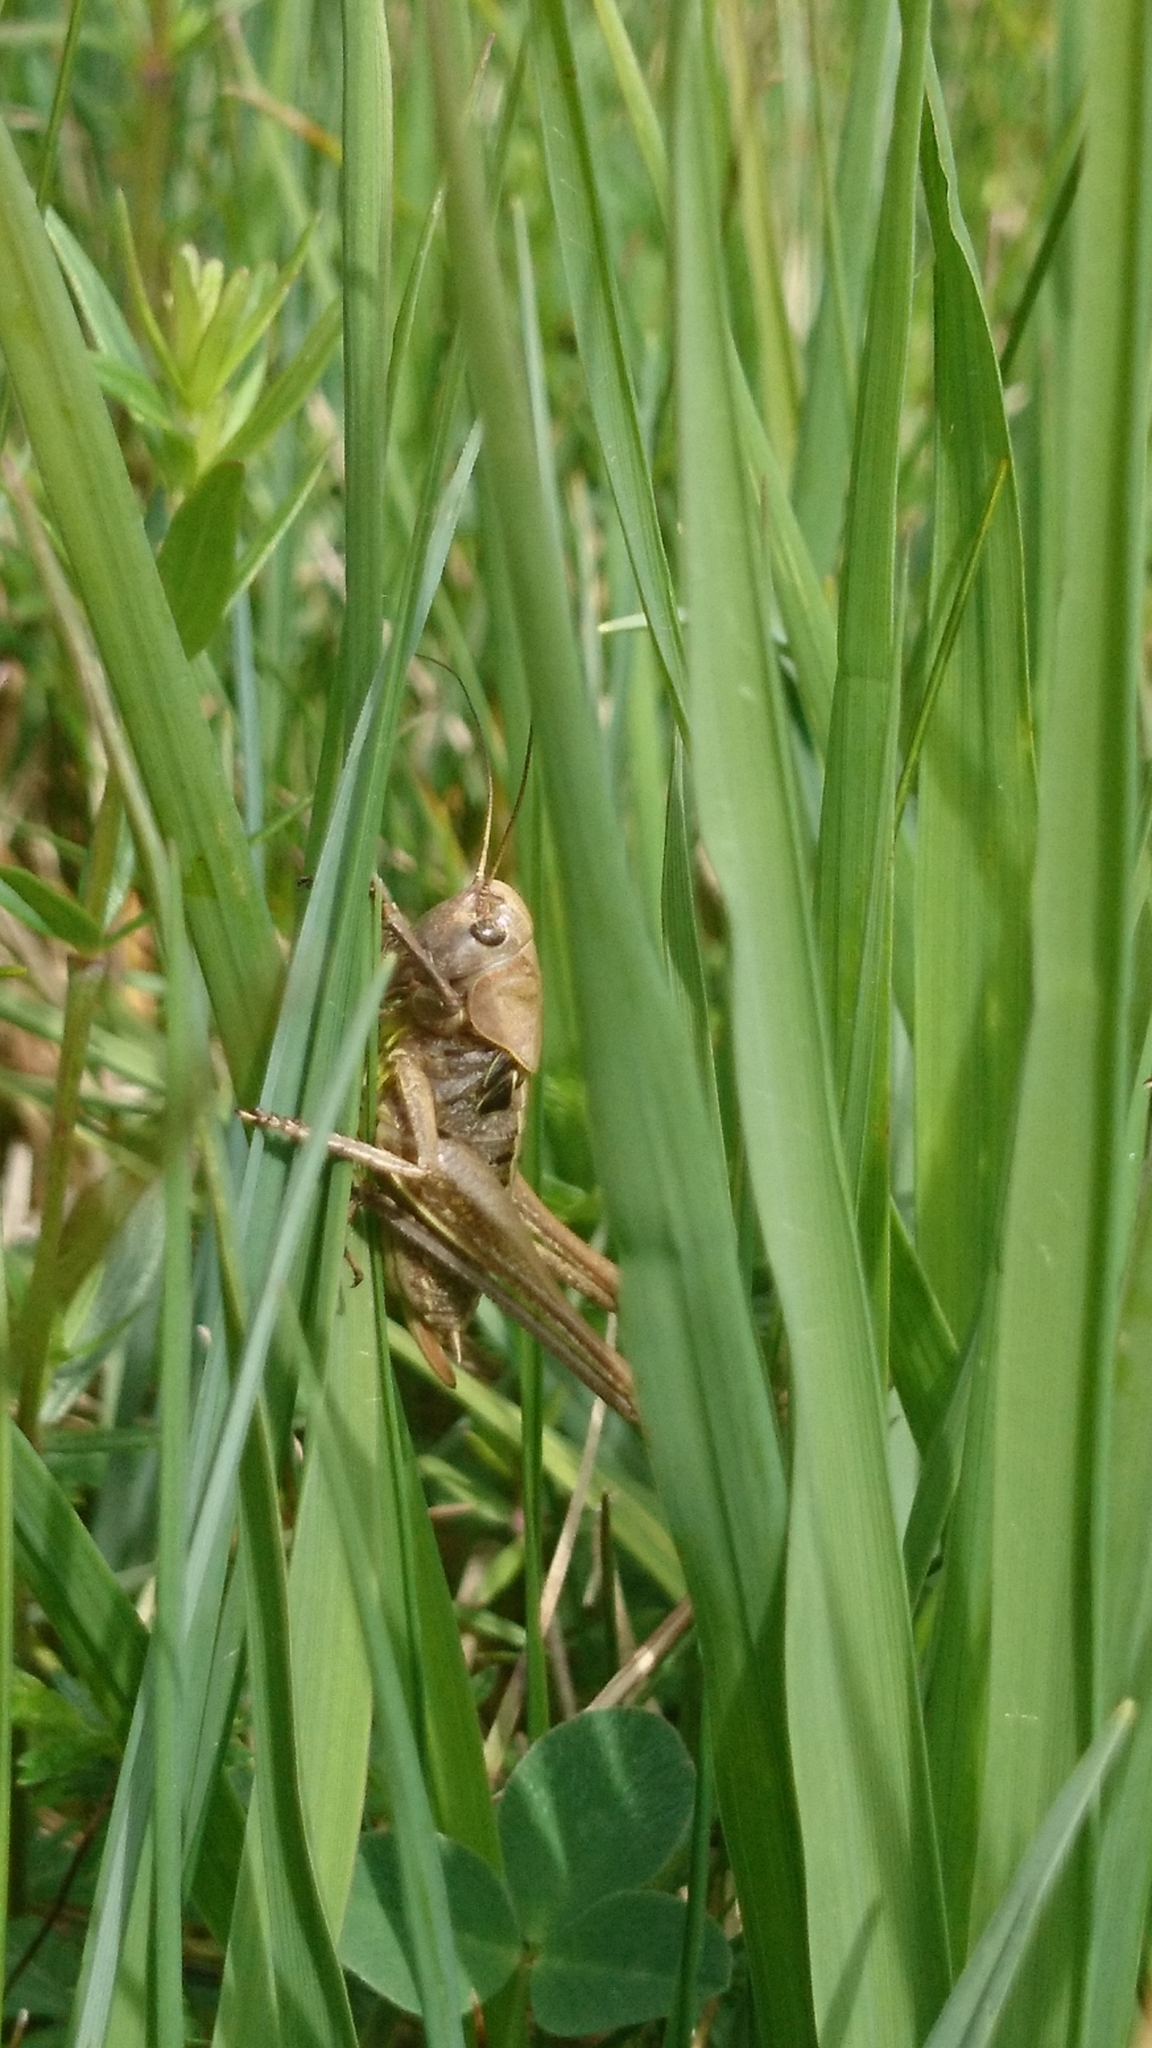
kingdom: Animalia
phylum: Arthropoda
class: Insecta
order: Orthoptera
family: Tettigoniidae
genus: Decticus
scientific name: Decticus verrucivorus
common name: Wart-biter
